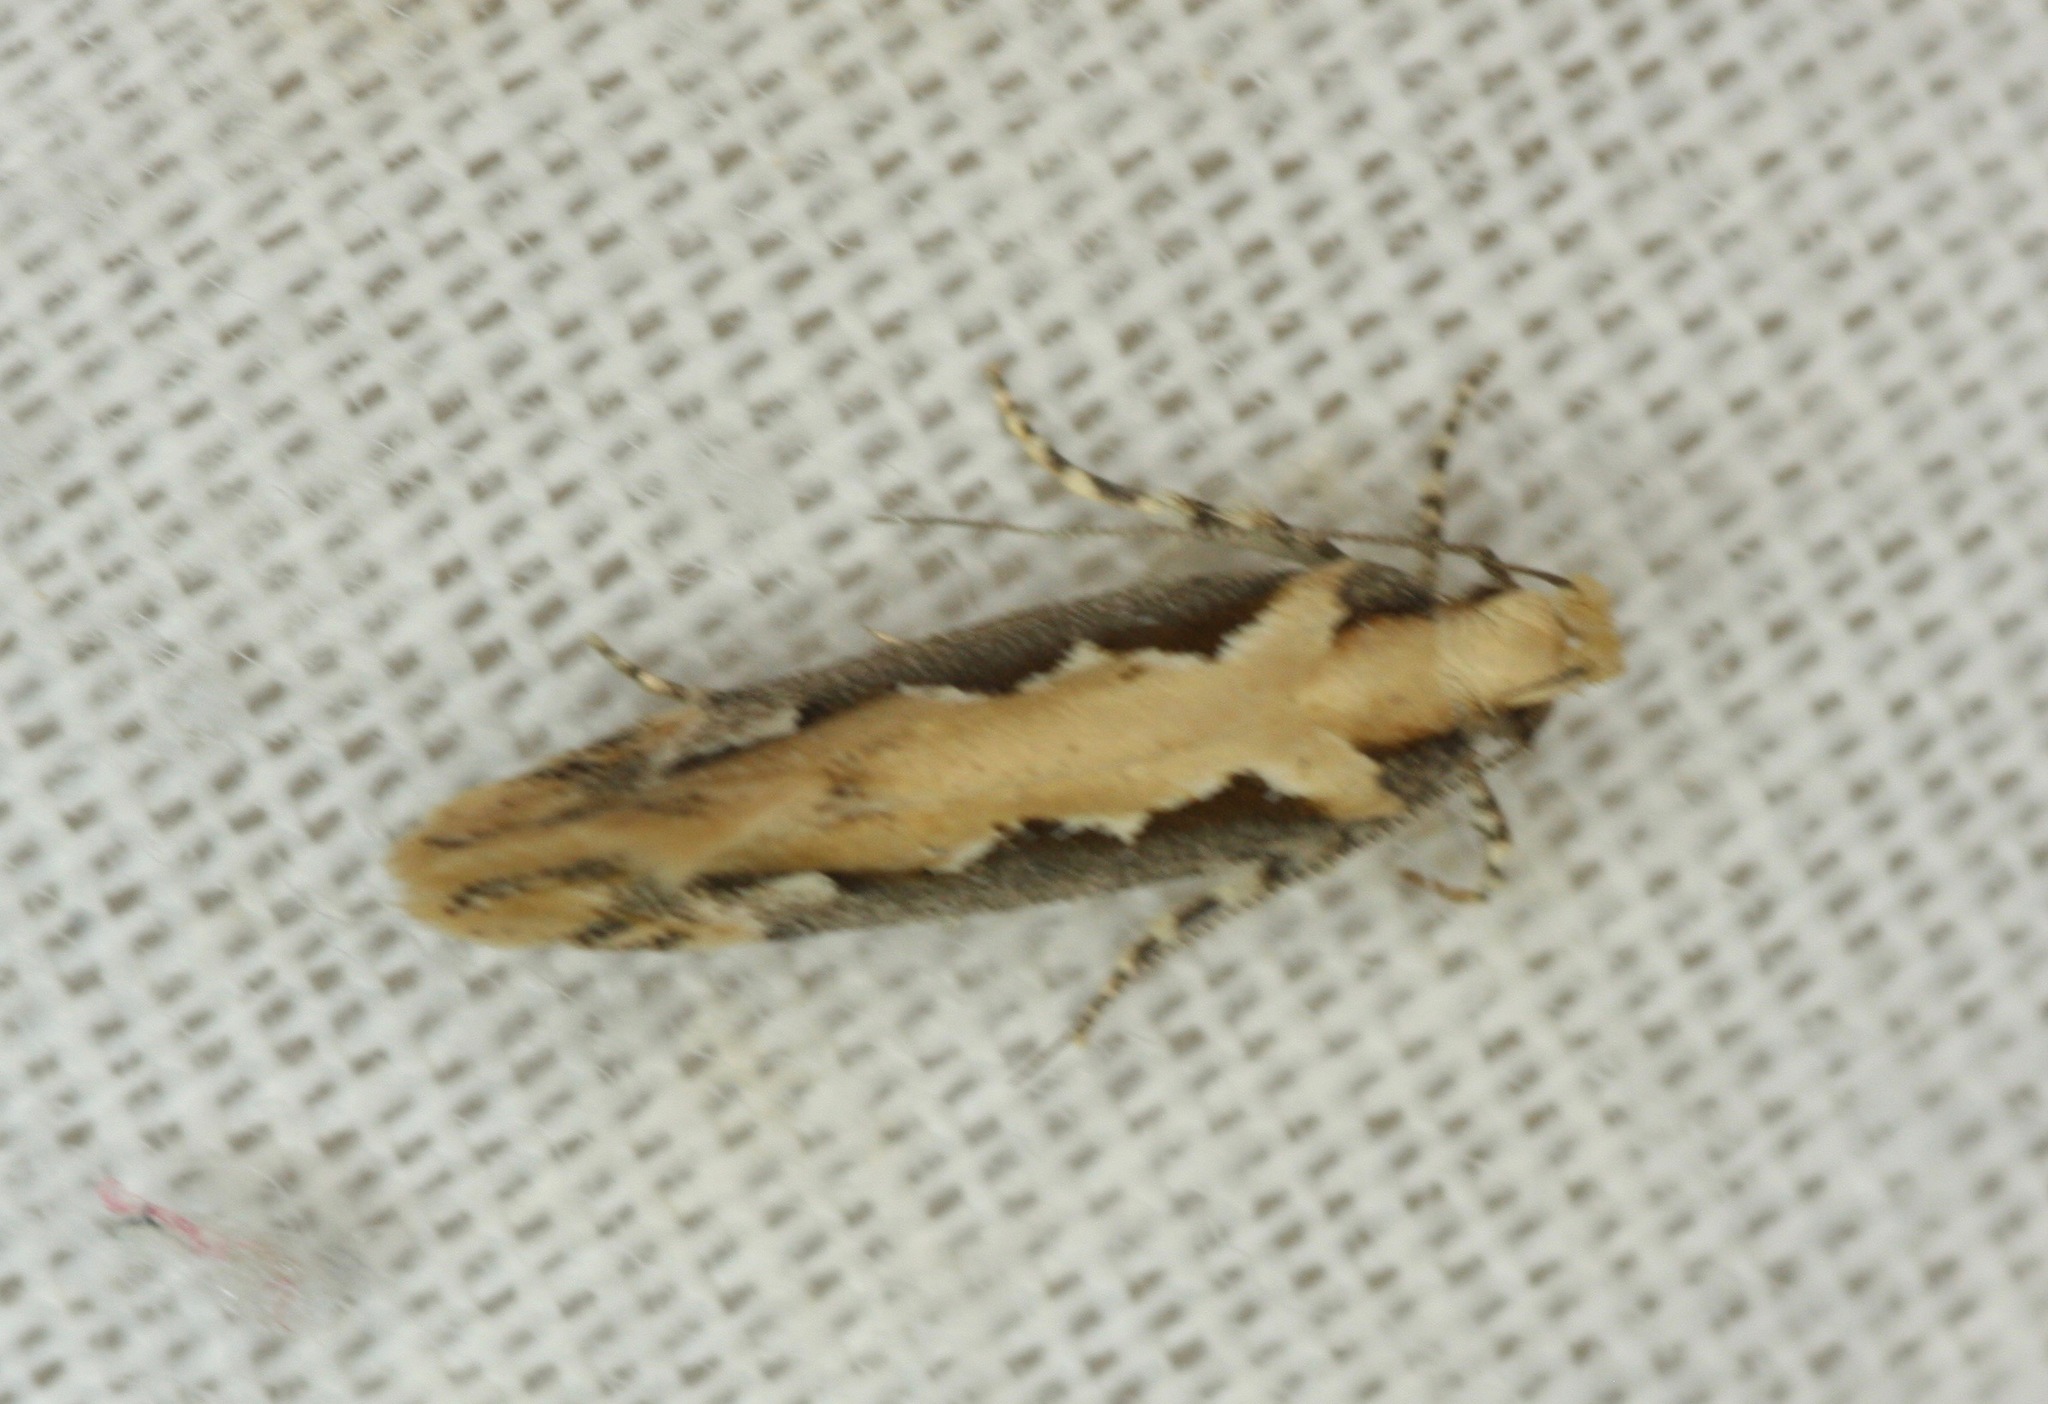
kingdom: Animalia
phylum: Arthropoda
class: Insecta
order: Lepidoptera
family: Gelechiidae
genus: Ornativalva
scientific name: Ornativalva erubescens
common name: Moth
